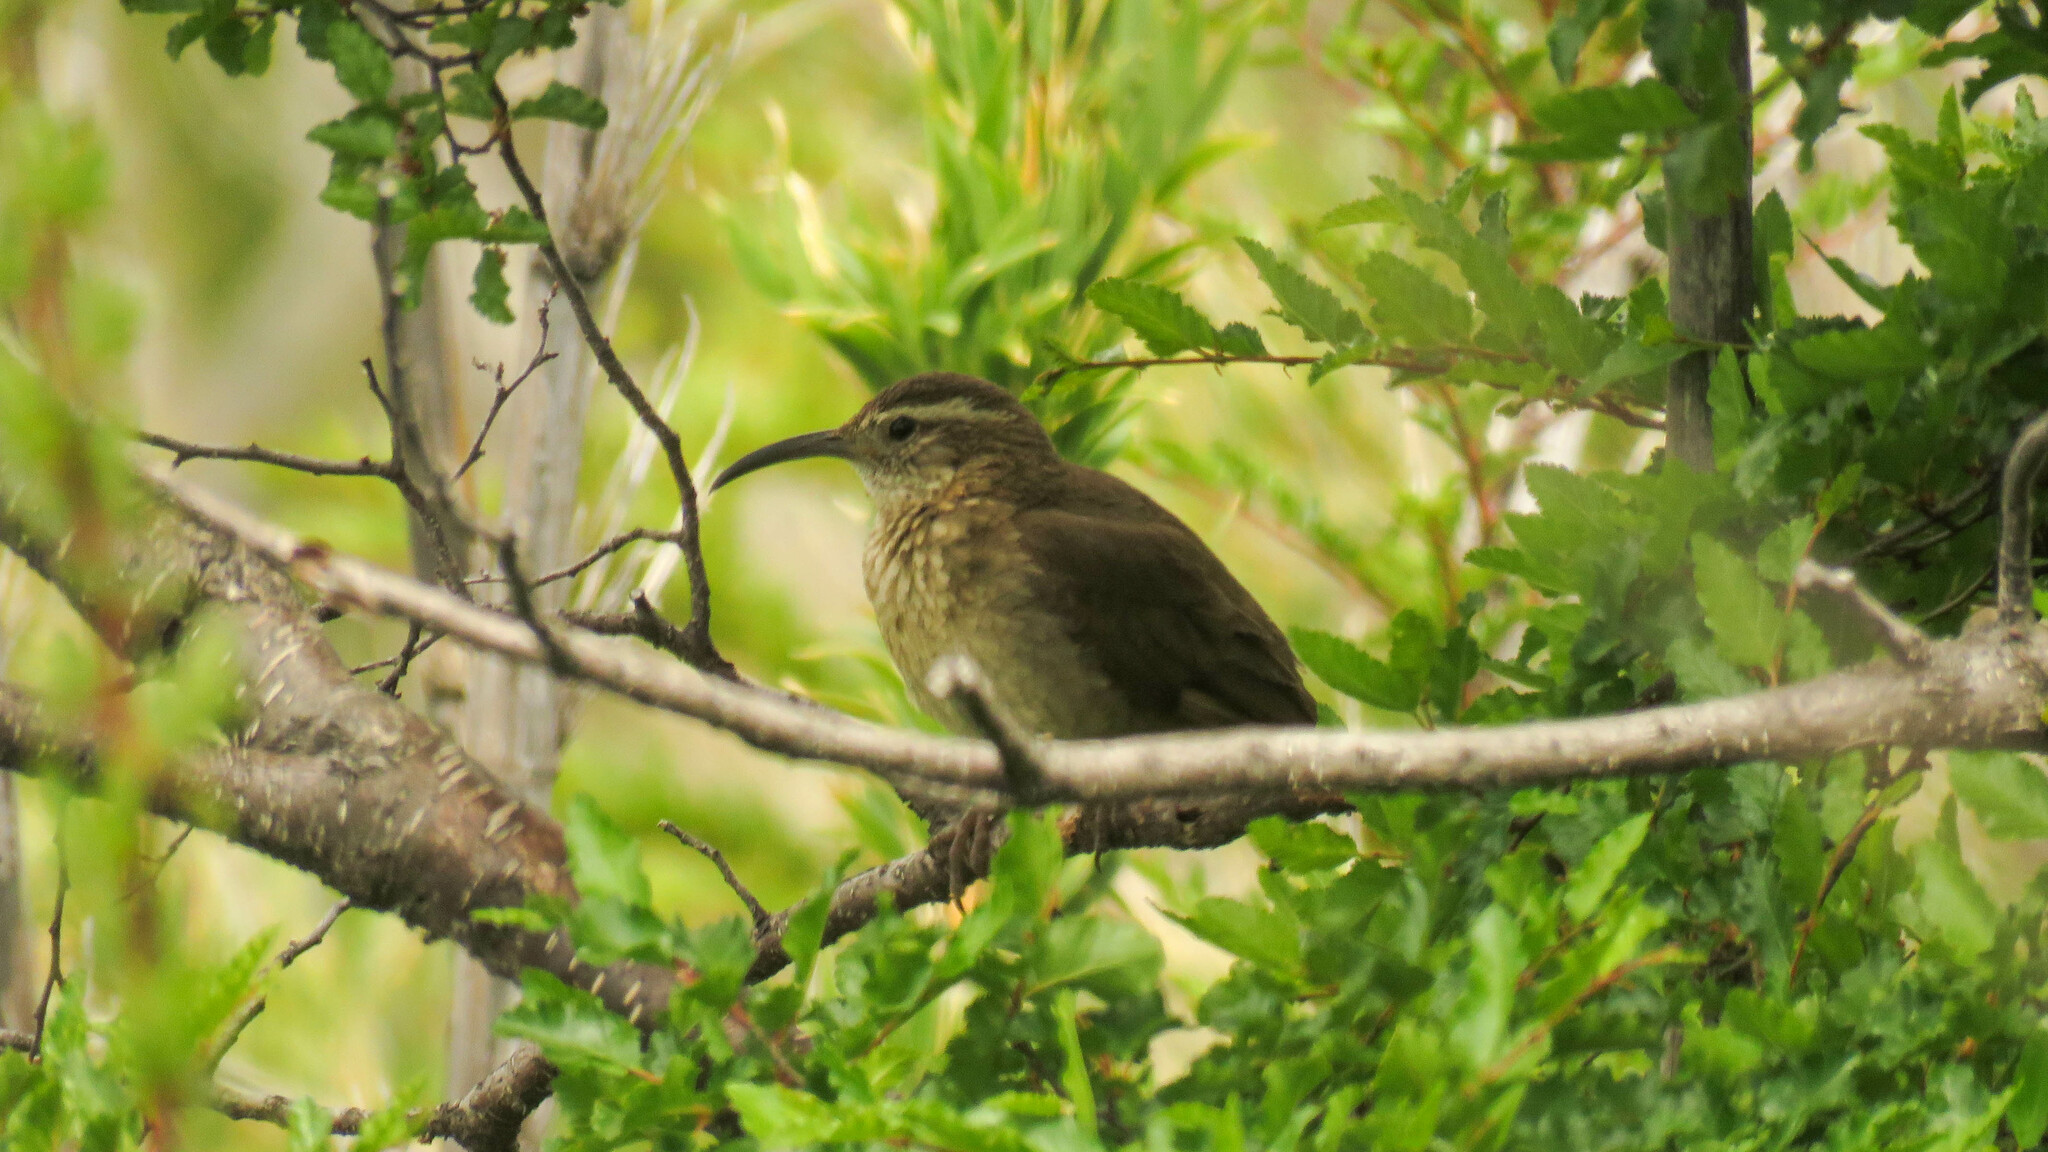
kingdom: Animalia
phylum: Chordata
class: Aves
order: Passeriformes
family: Furnariidae
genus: Upucerthia
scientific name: Upucerthia saturatior
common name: Patagonian forest earthcreeper
